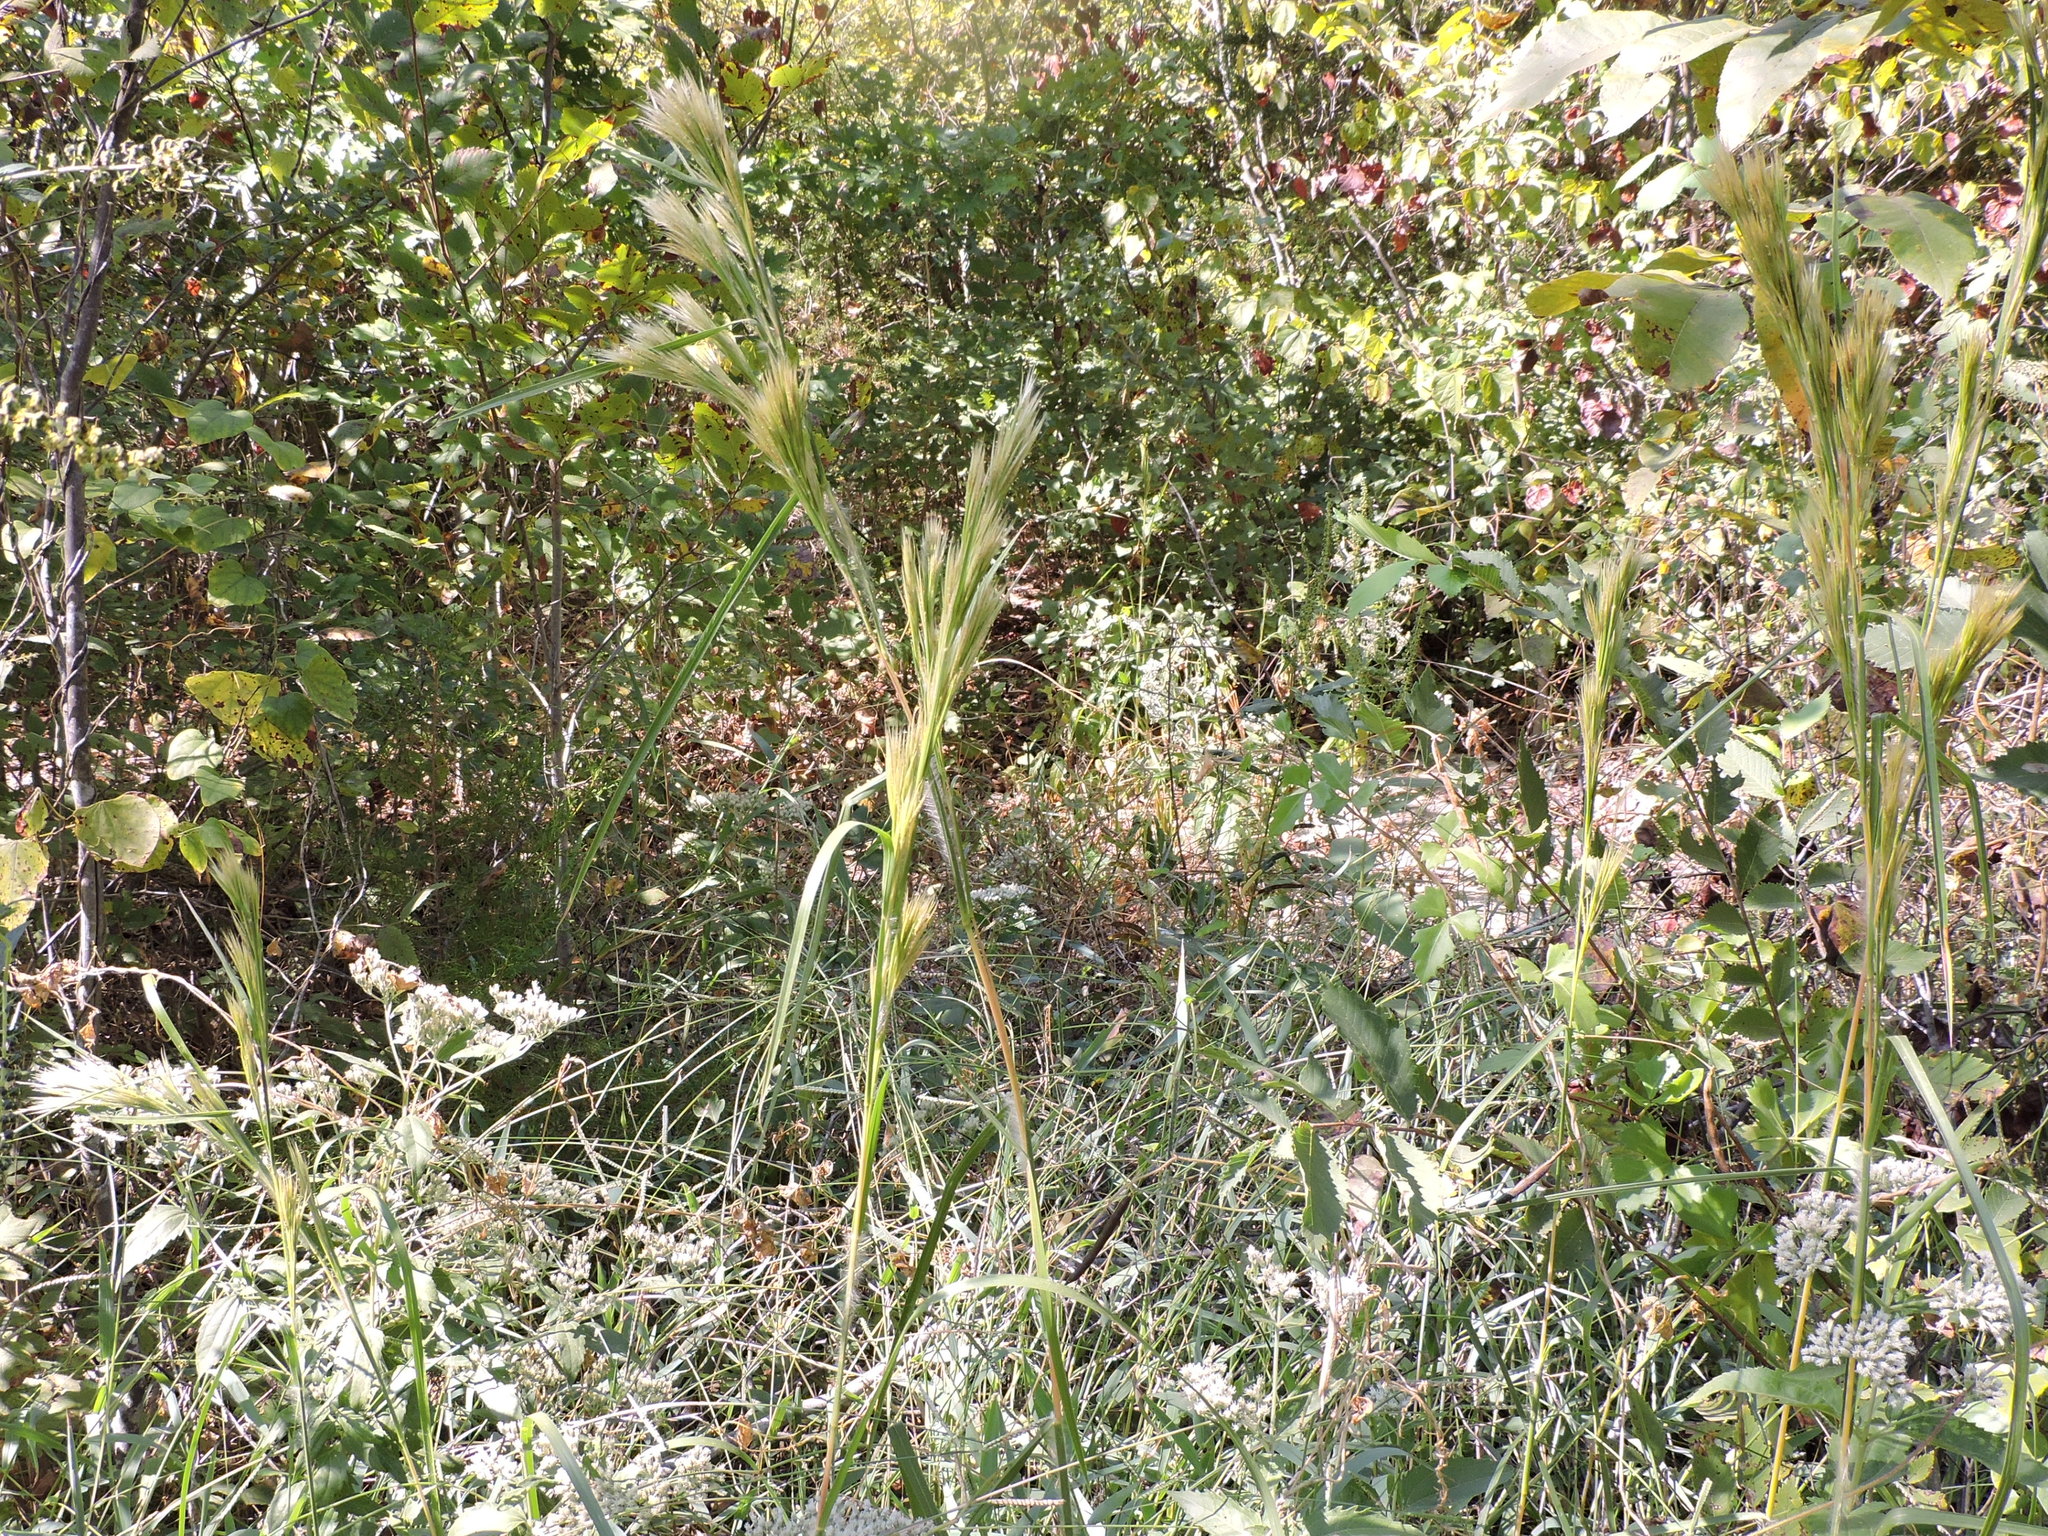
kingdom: Plantae
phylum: Tracheophyta
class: Liliopsida
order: Poales
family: Poaceae
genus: Andropogon
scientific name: Andropogon tenuispatheus
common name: Bushy bluestem
